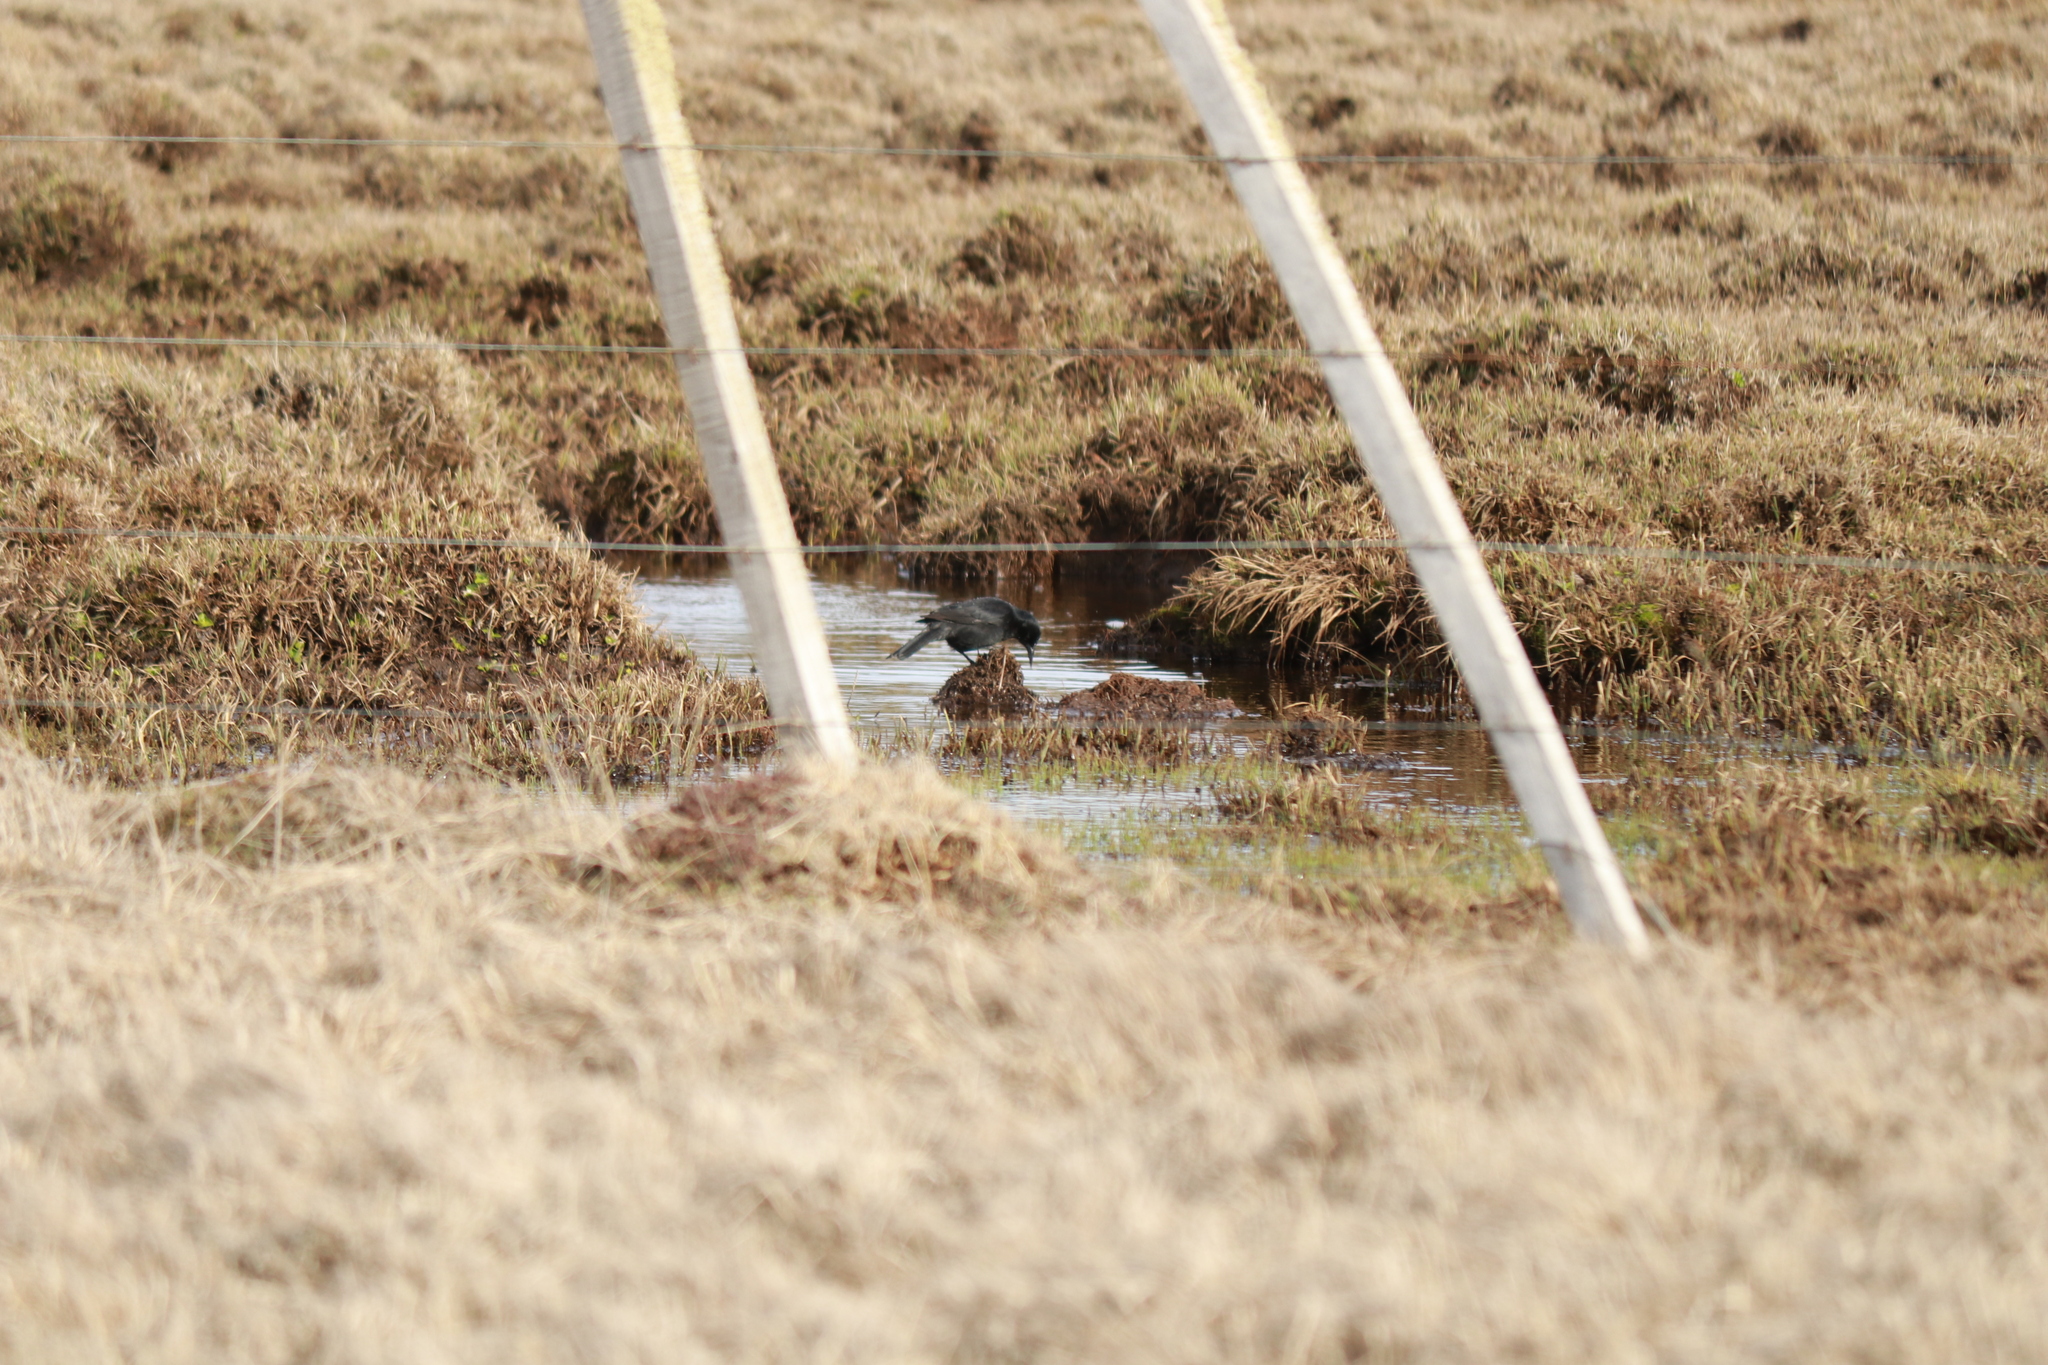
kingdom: Animalia
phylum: Chordata
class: Aves
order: Passeriformes
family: Icteridae
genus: Curaeus
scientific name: Curaeus curaeus
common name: Austral blackbird
